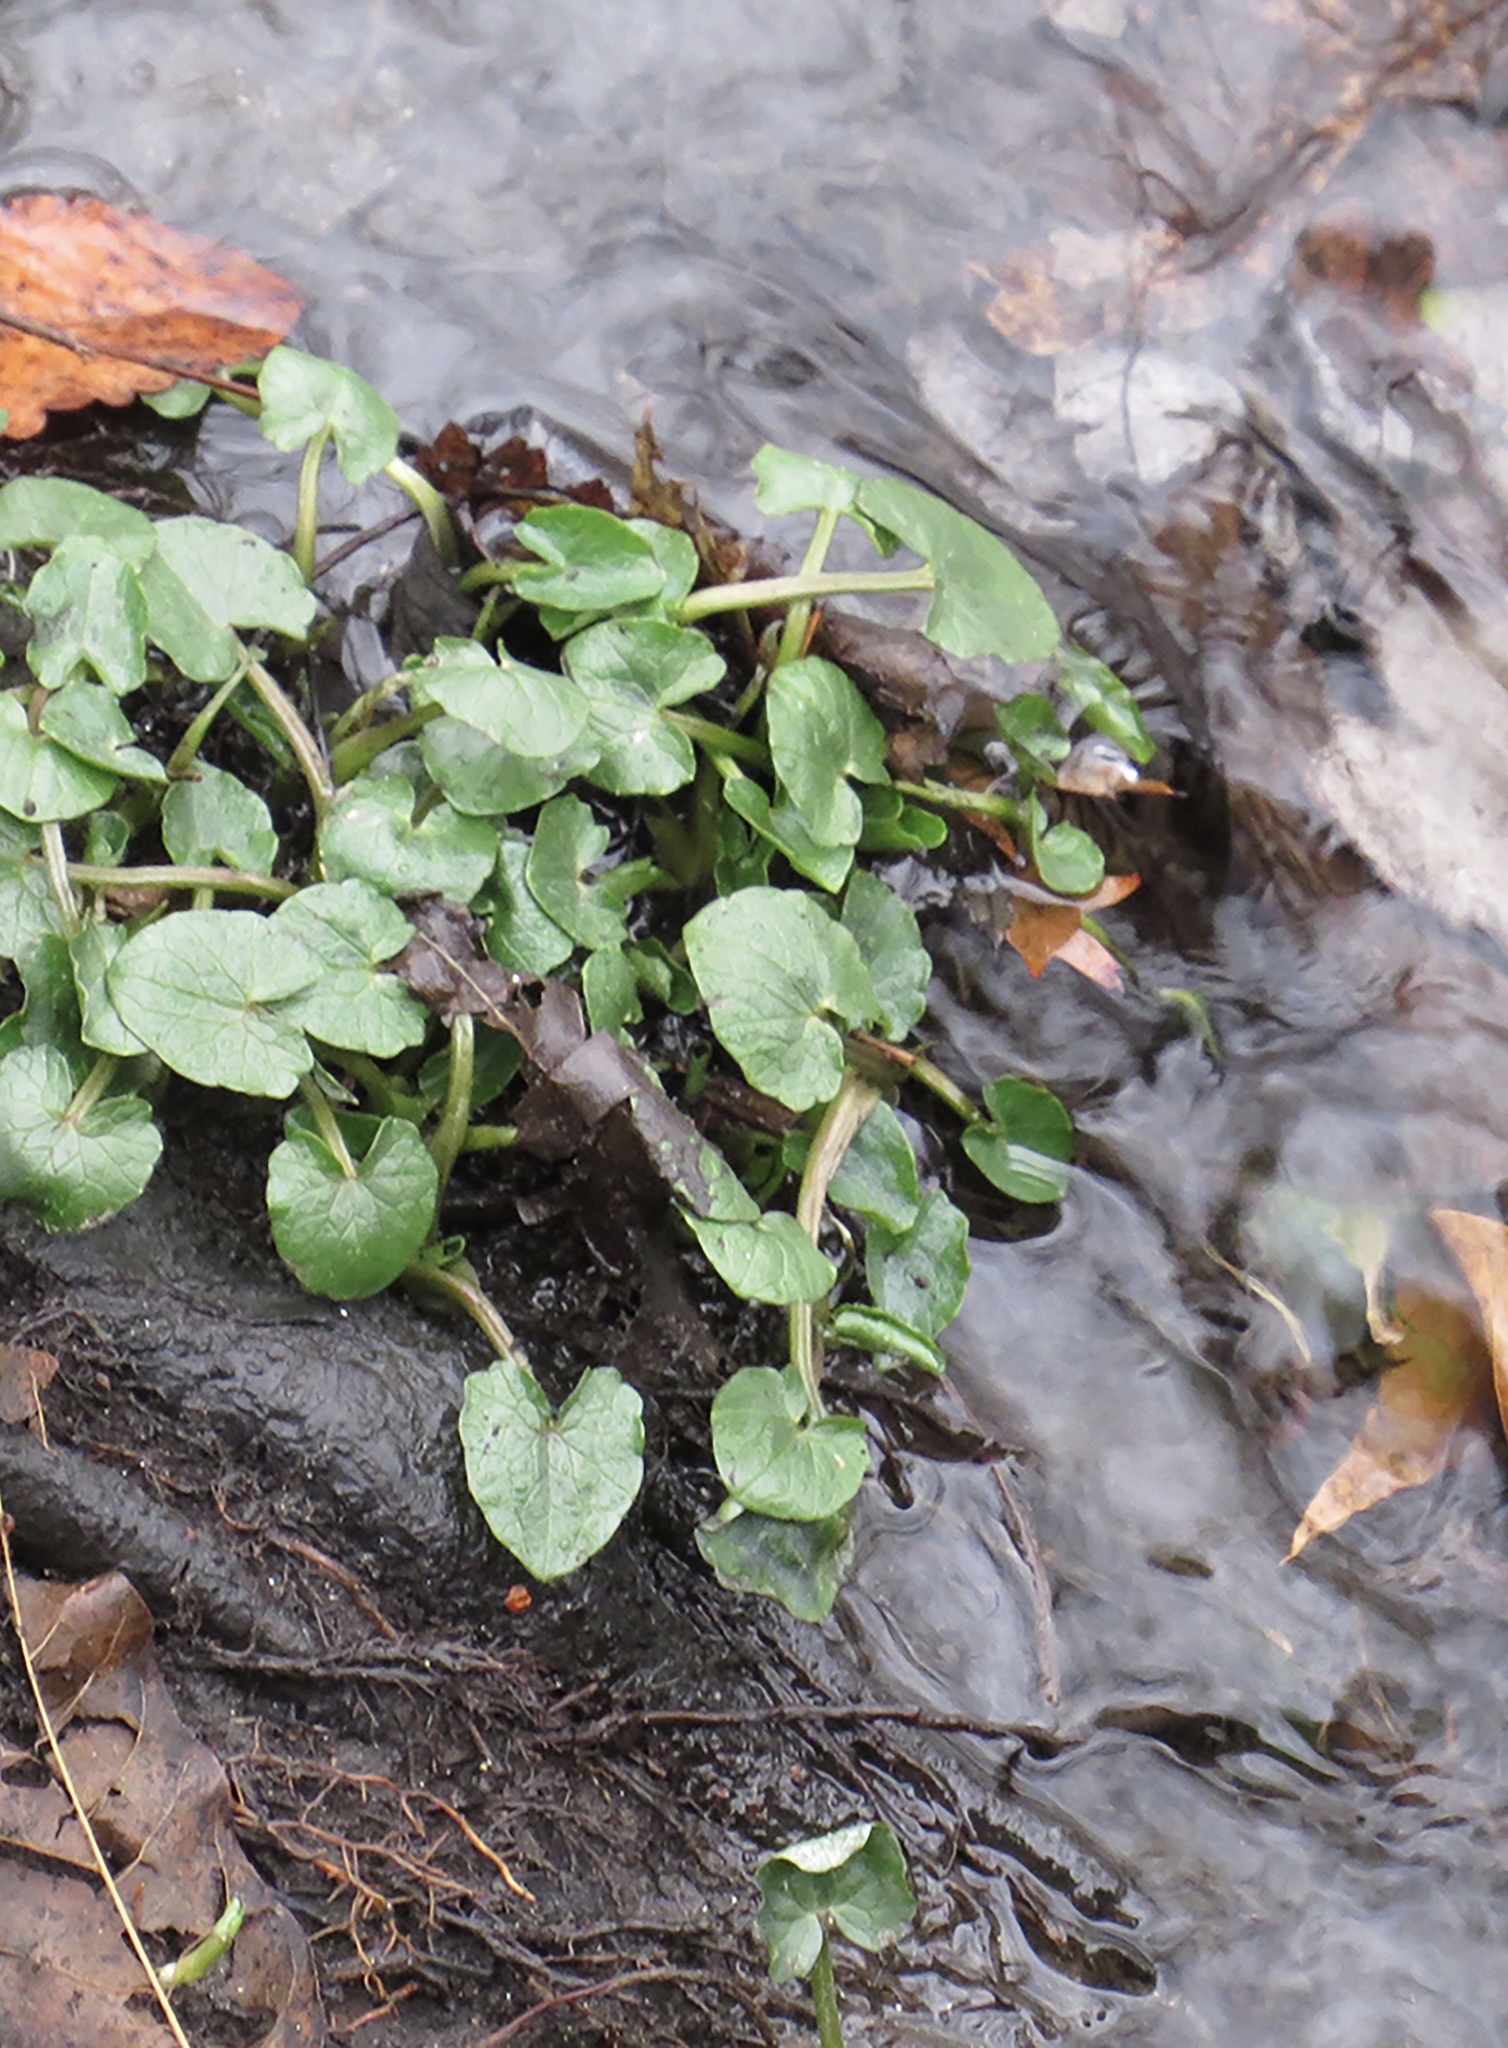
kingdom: Plantae
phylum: Tracheophyta
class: Magnoliopsida
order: Ranunculales
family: Ranunculaceae
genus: Ficaria
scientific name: Ficaria verna
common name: Lesser celandine
